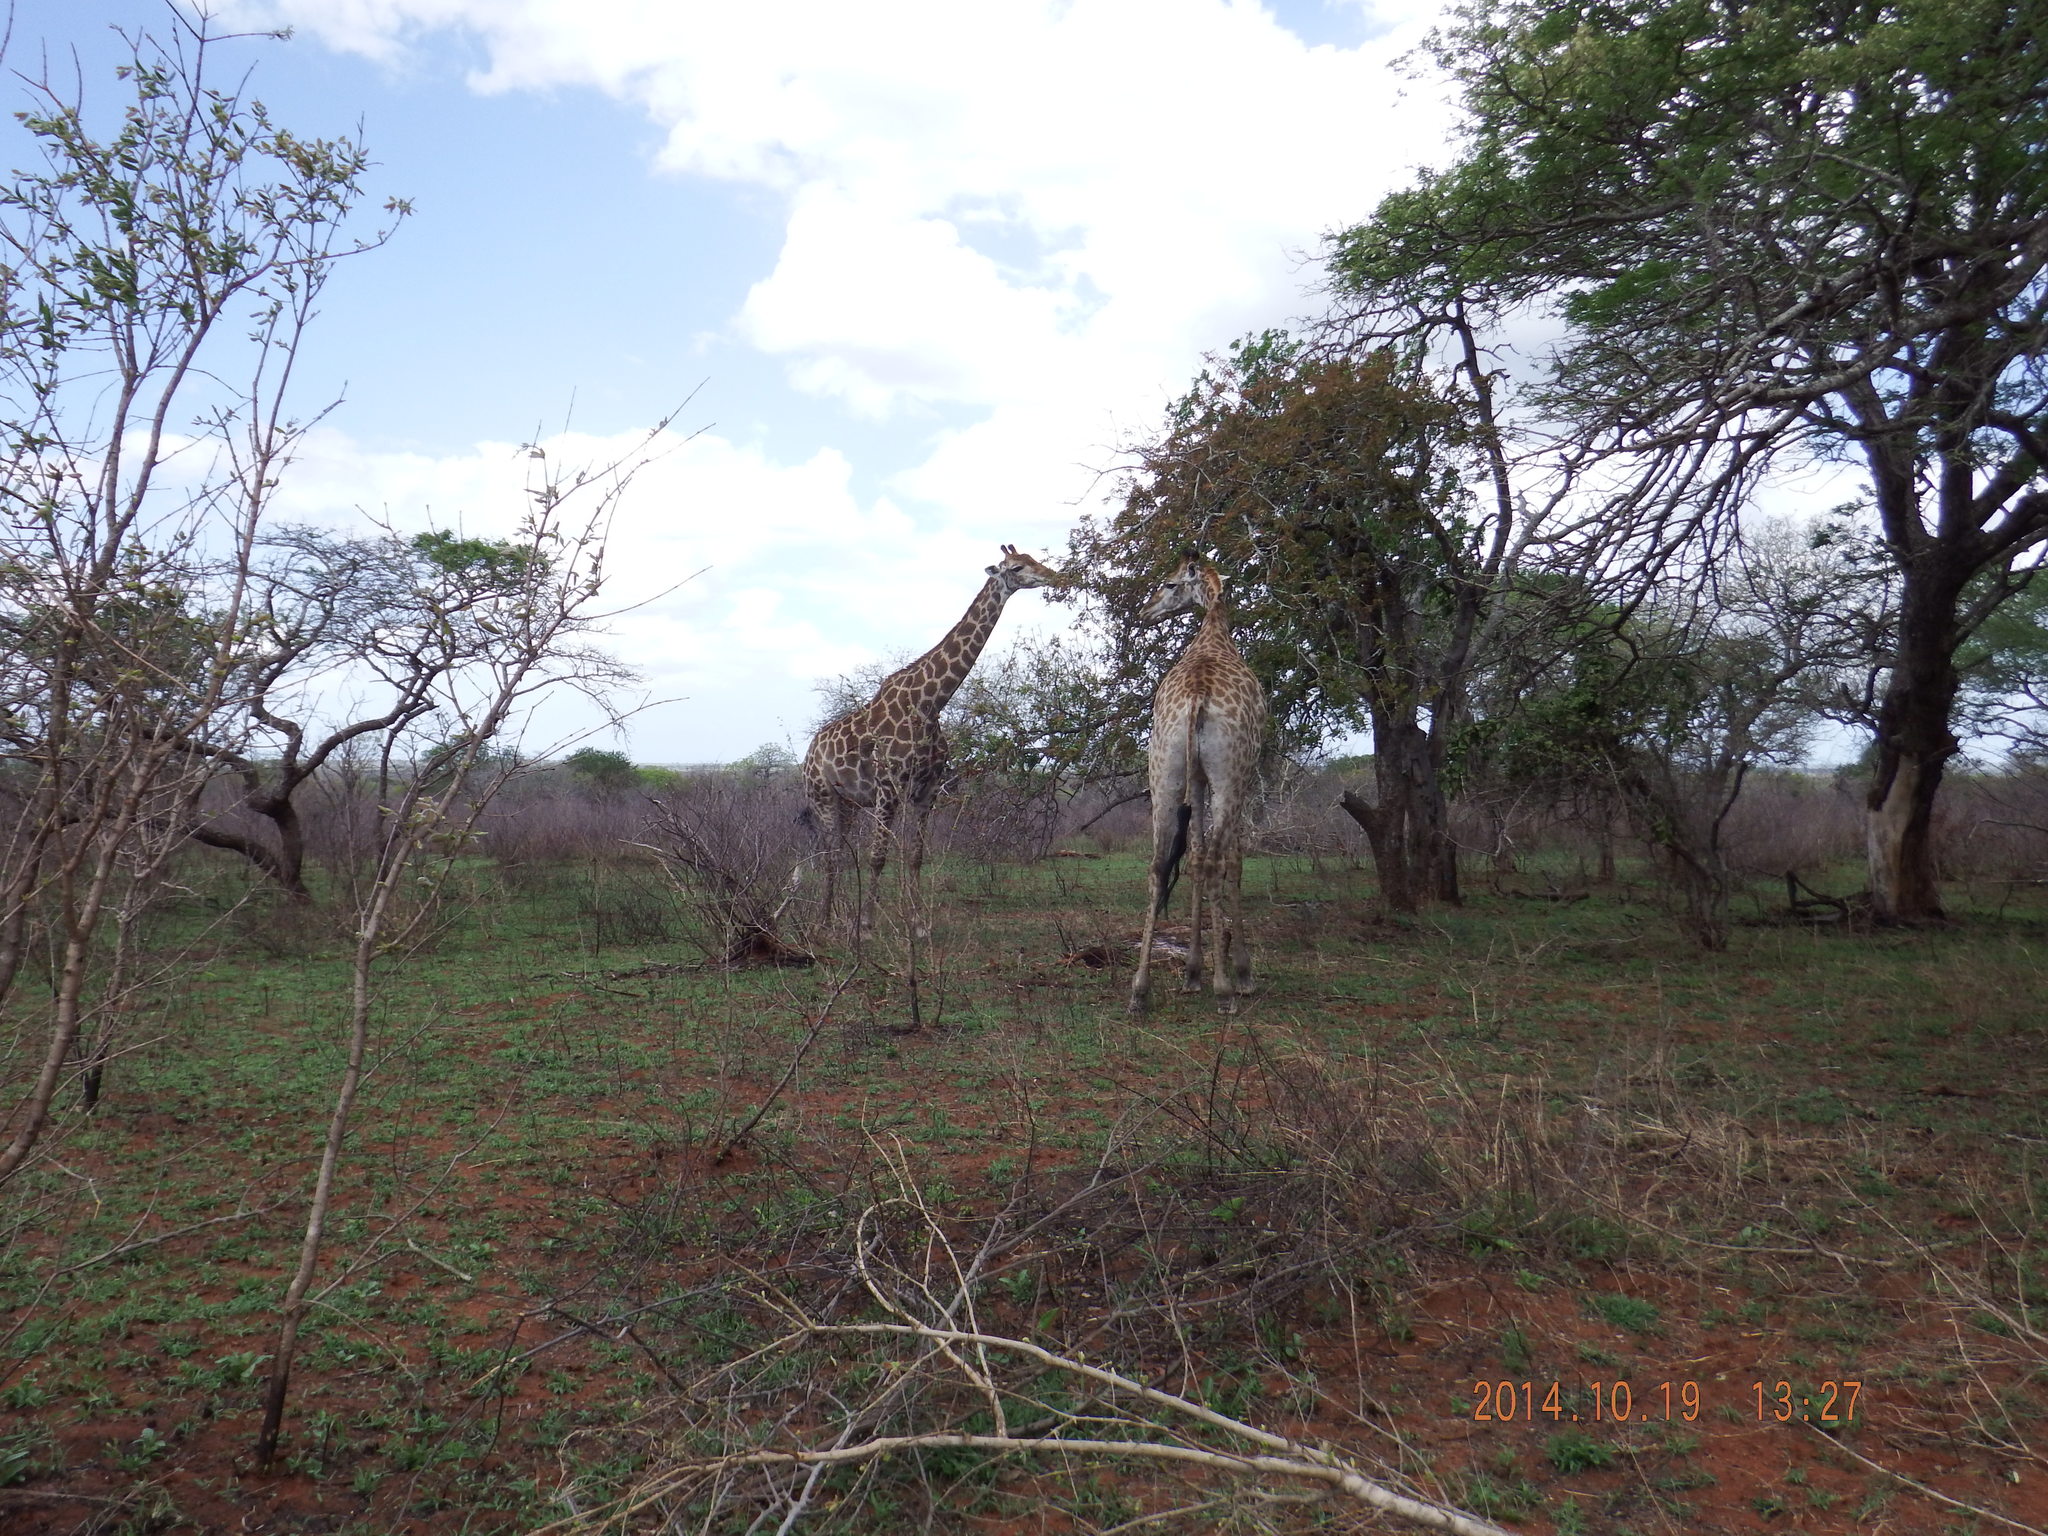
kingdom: Animalia
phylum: Chordata
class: Mammalia
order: Artiodactyla
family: Giraffidae
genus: Giraffa
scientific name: Giraffa giraffa
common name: Southern giraffe
